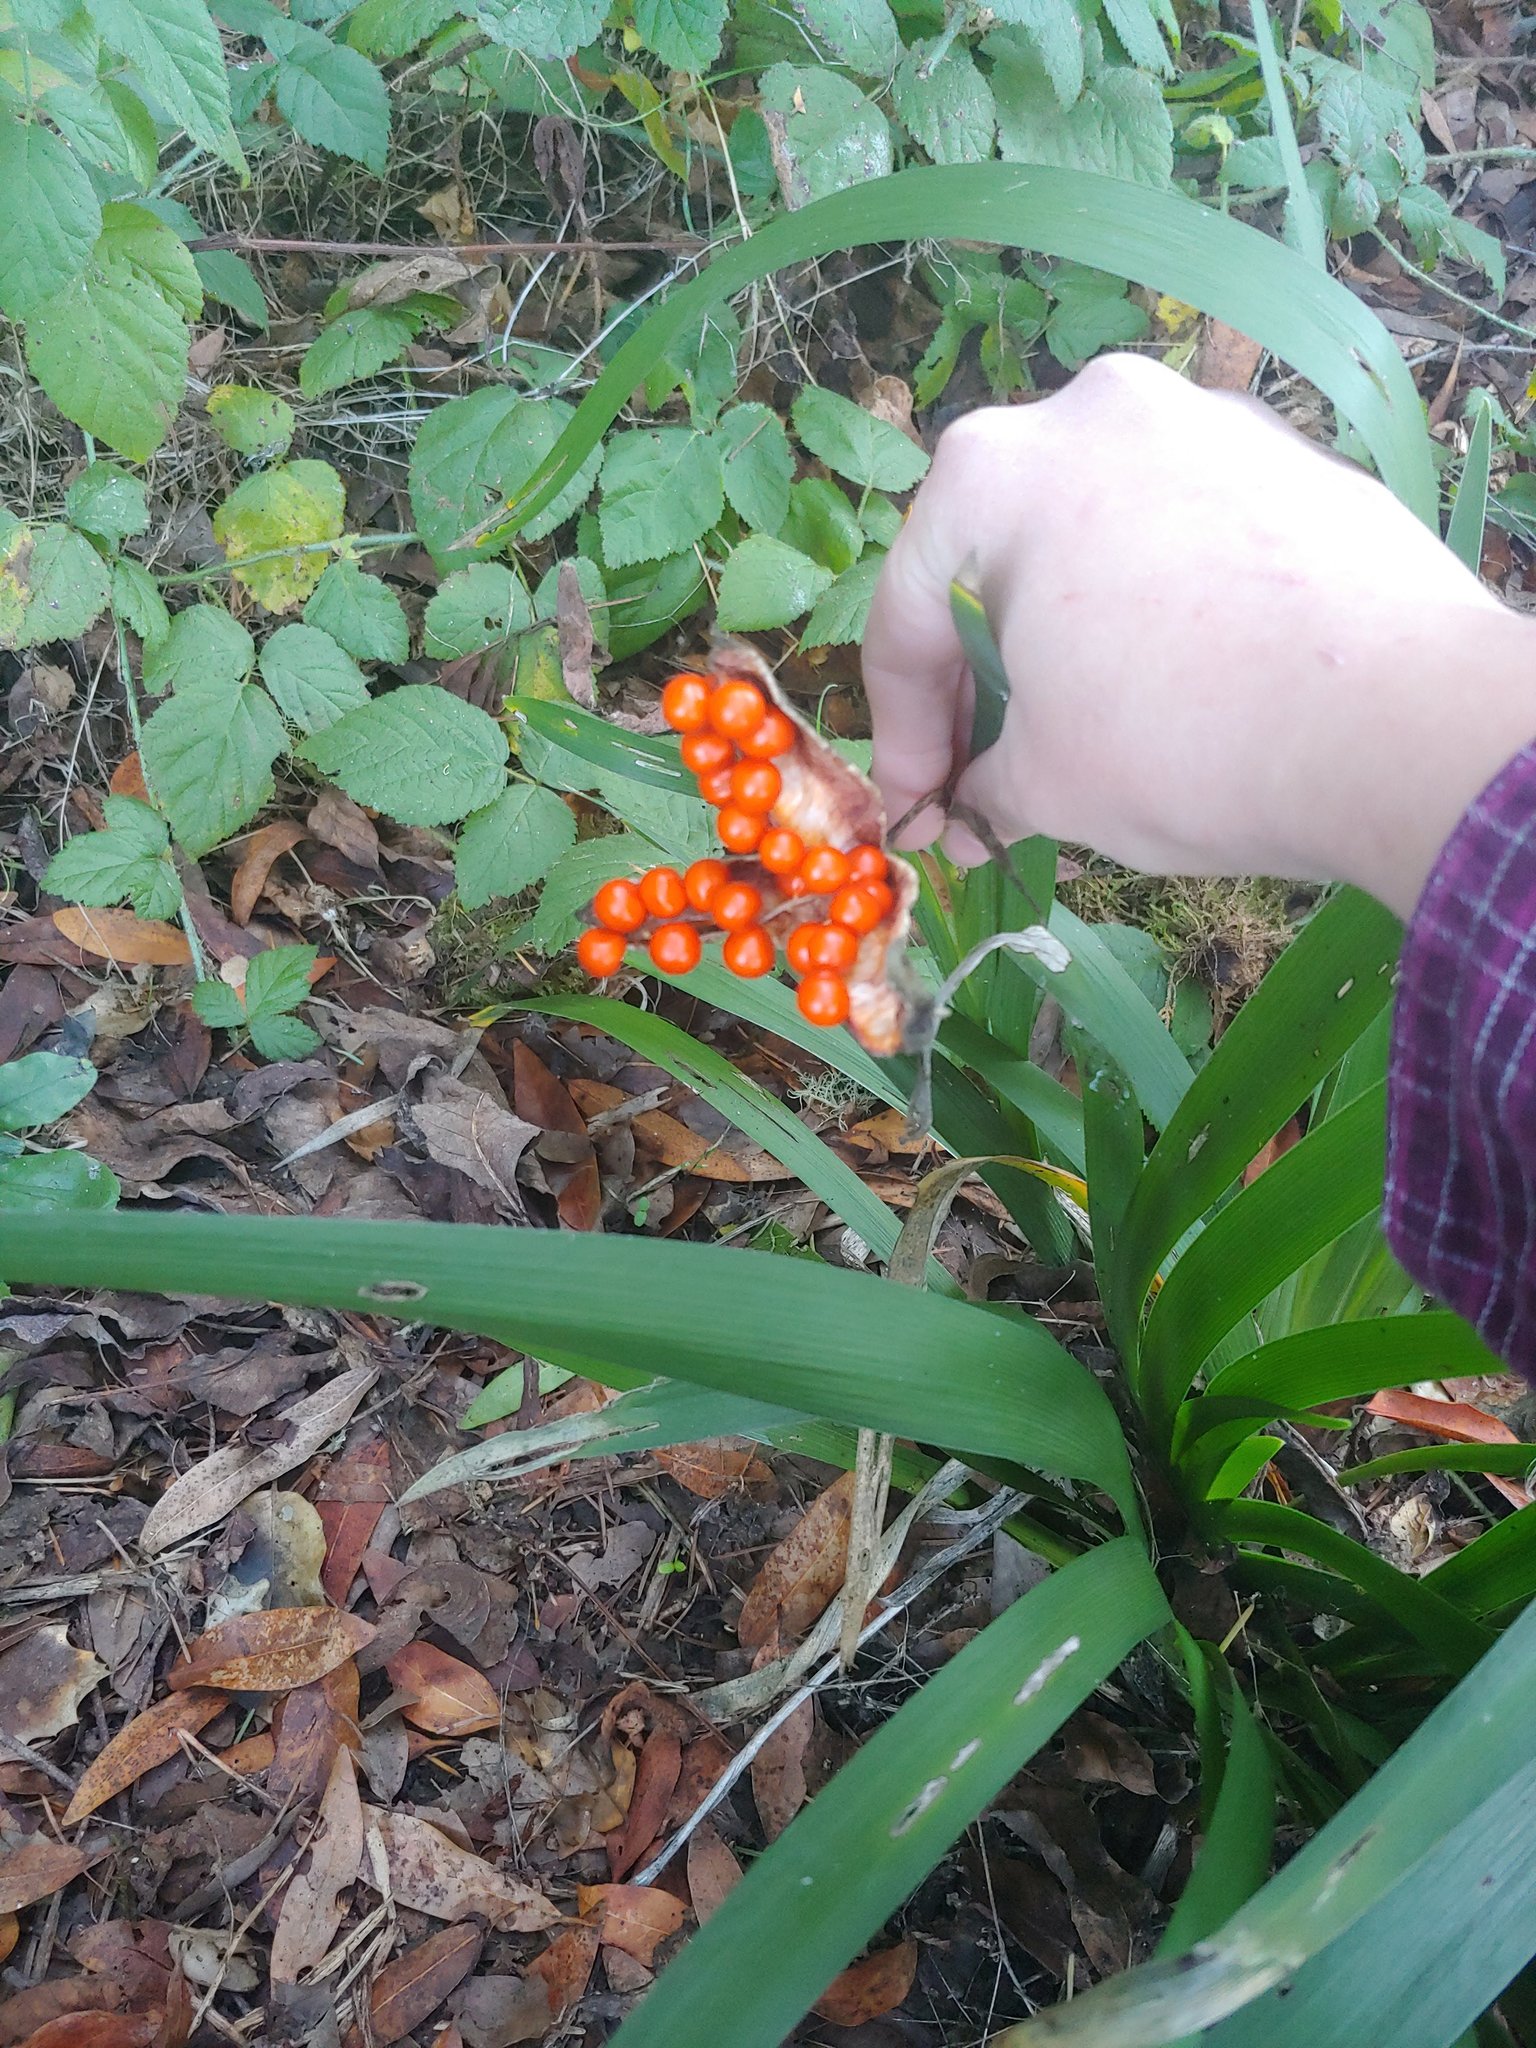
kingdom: Plantae
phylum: Tracheophyta
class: Liliopsida
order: Asparagales
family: Iridaceae
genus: Iris
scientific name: Iris foetidissima
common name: Stinking iris
